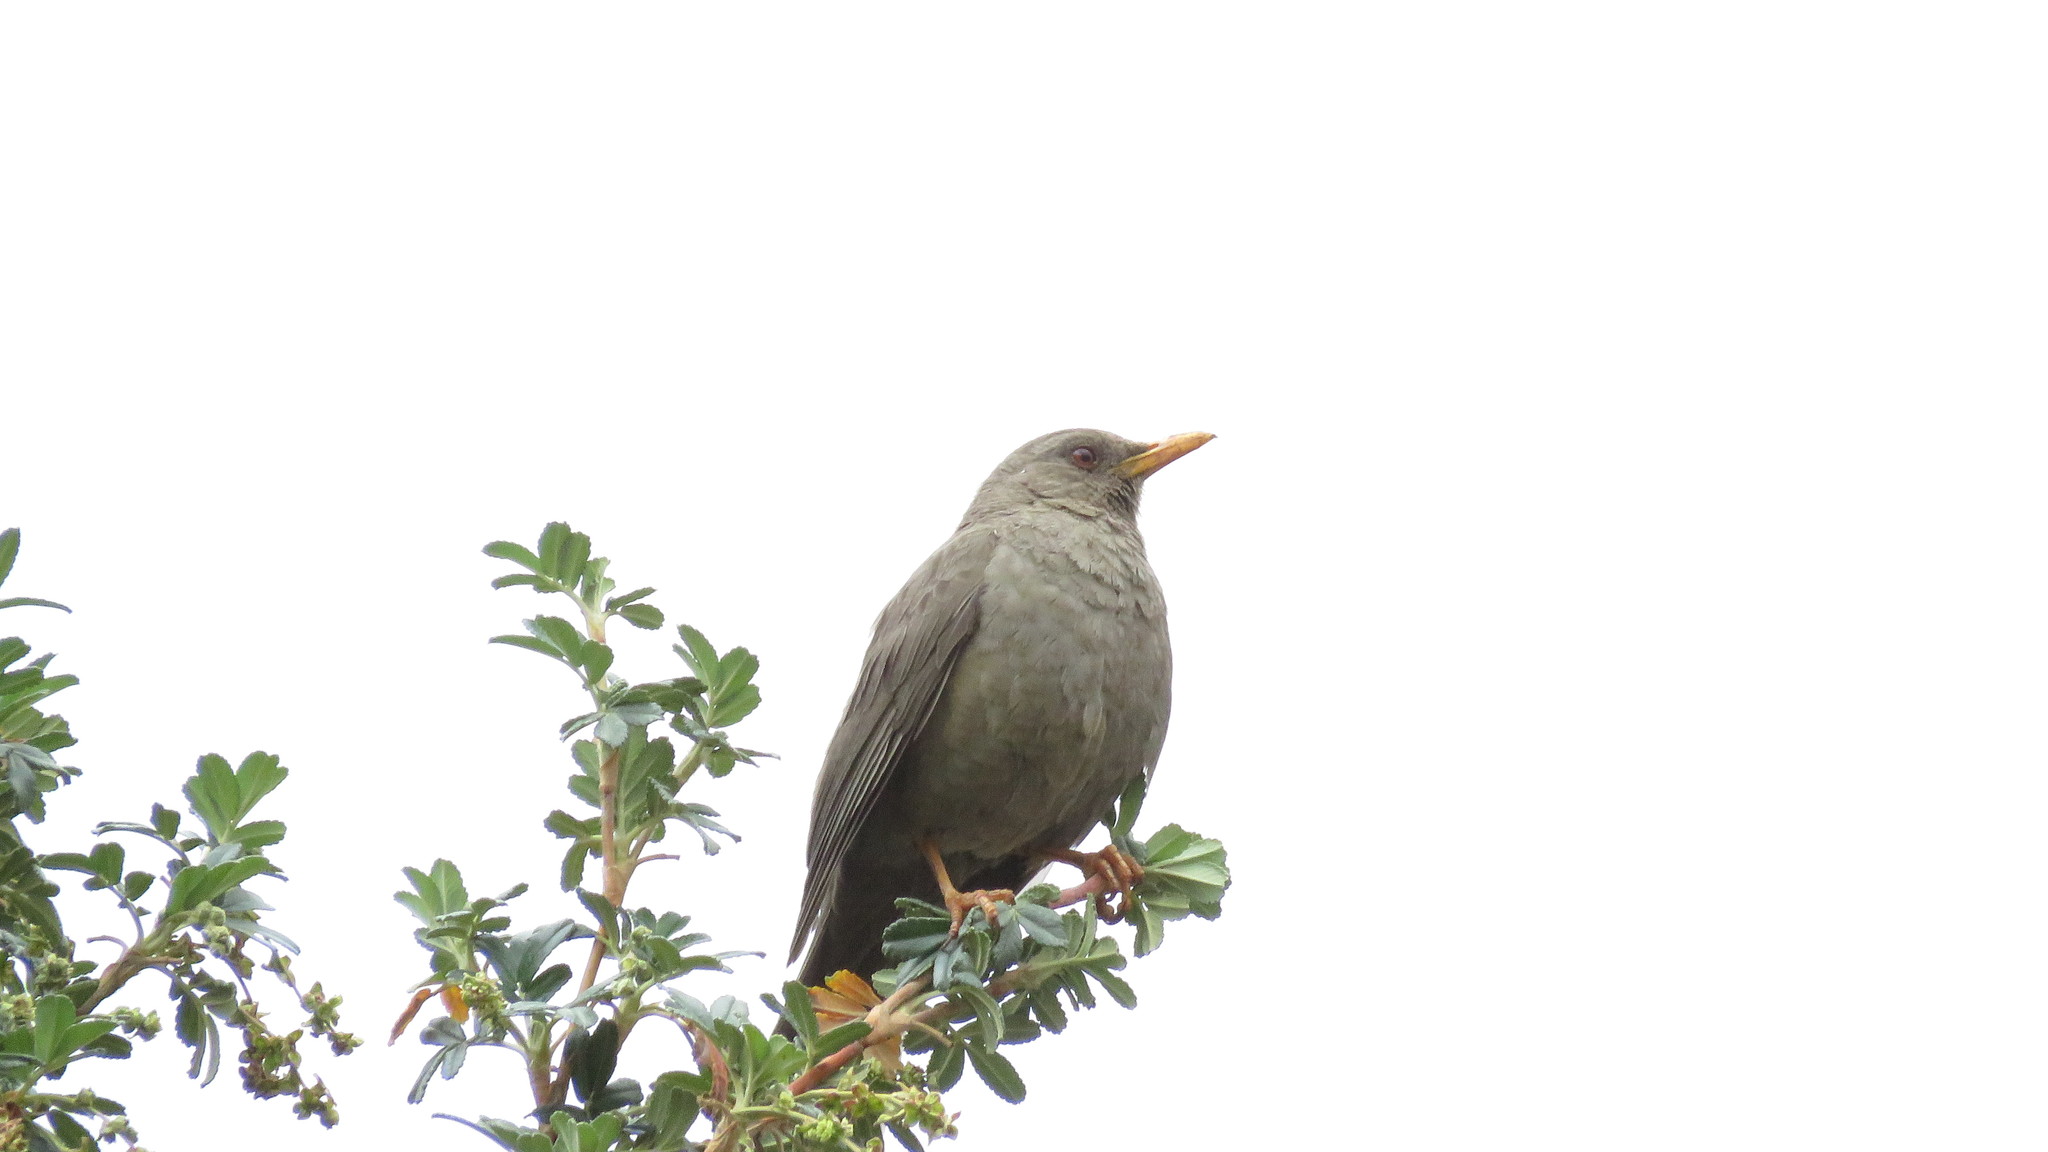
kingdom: Animalia
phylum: Chordata
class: Aves
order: Passeriformes
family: Turdidae
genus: Turdus
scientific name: Turdus chiguanco
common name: Chiguanco thrush
